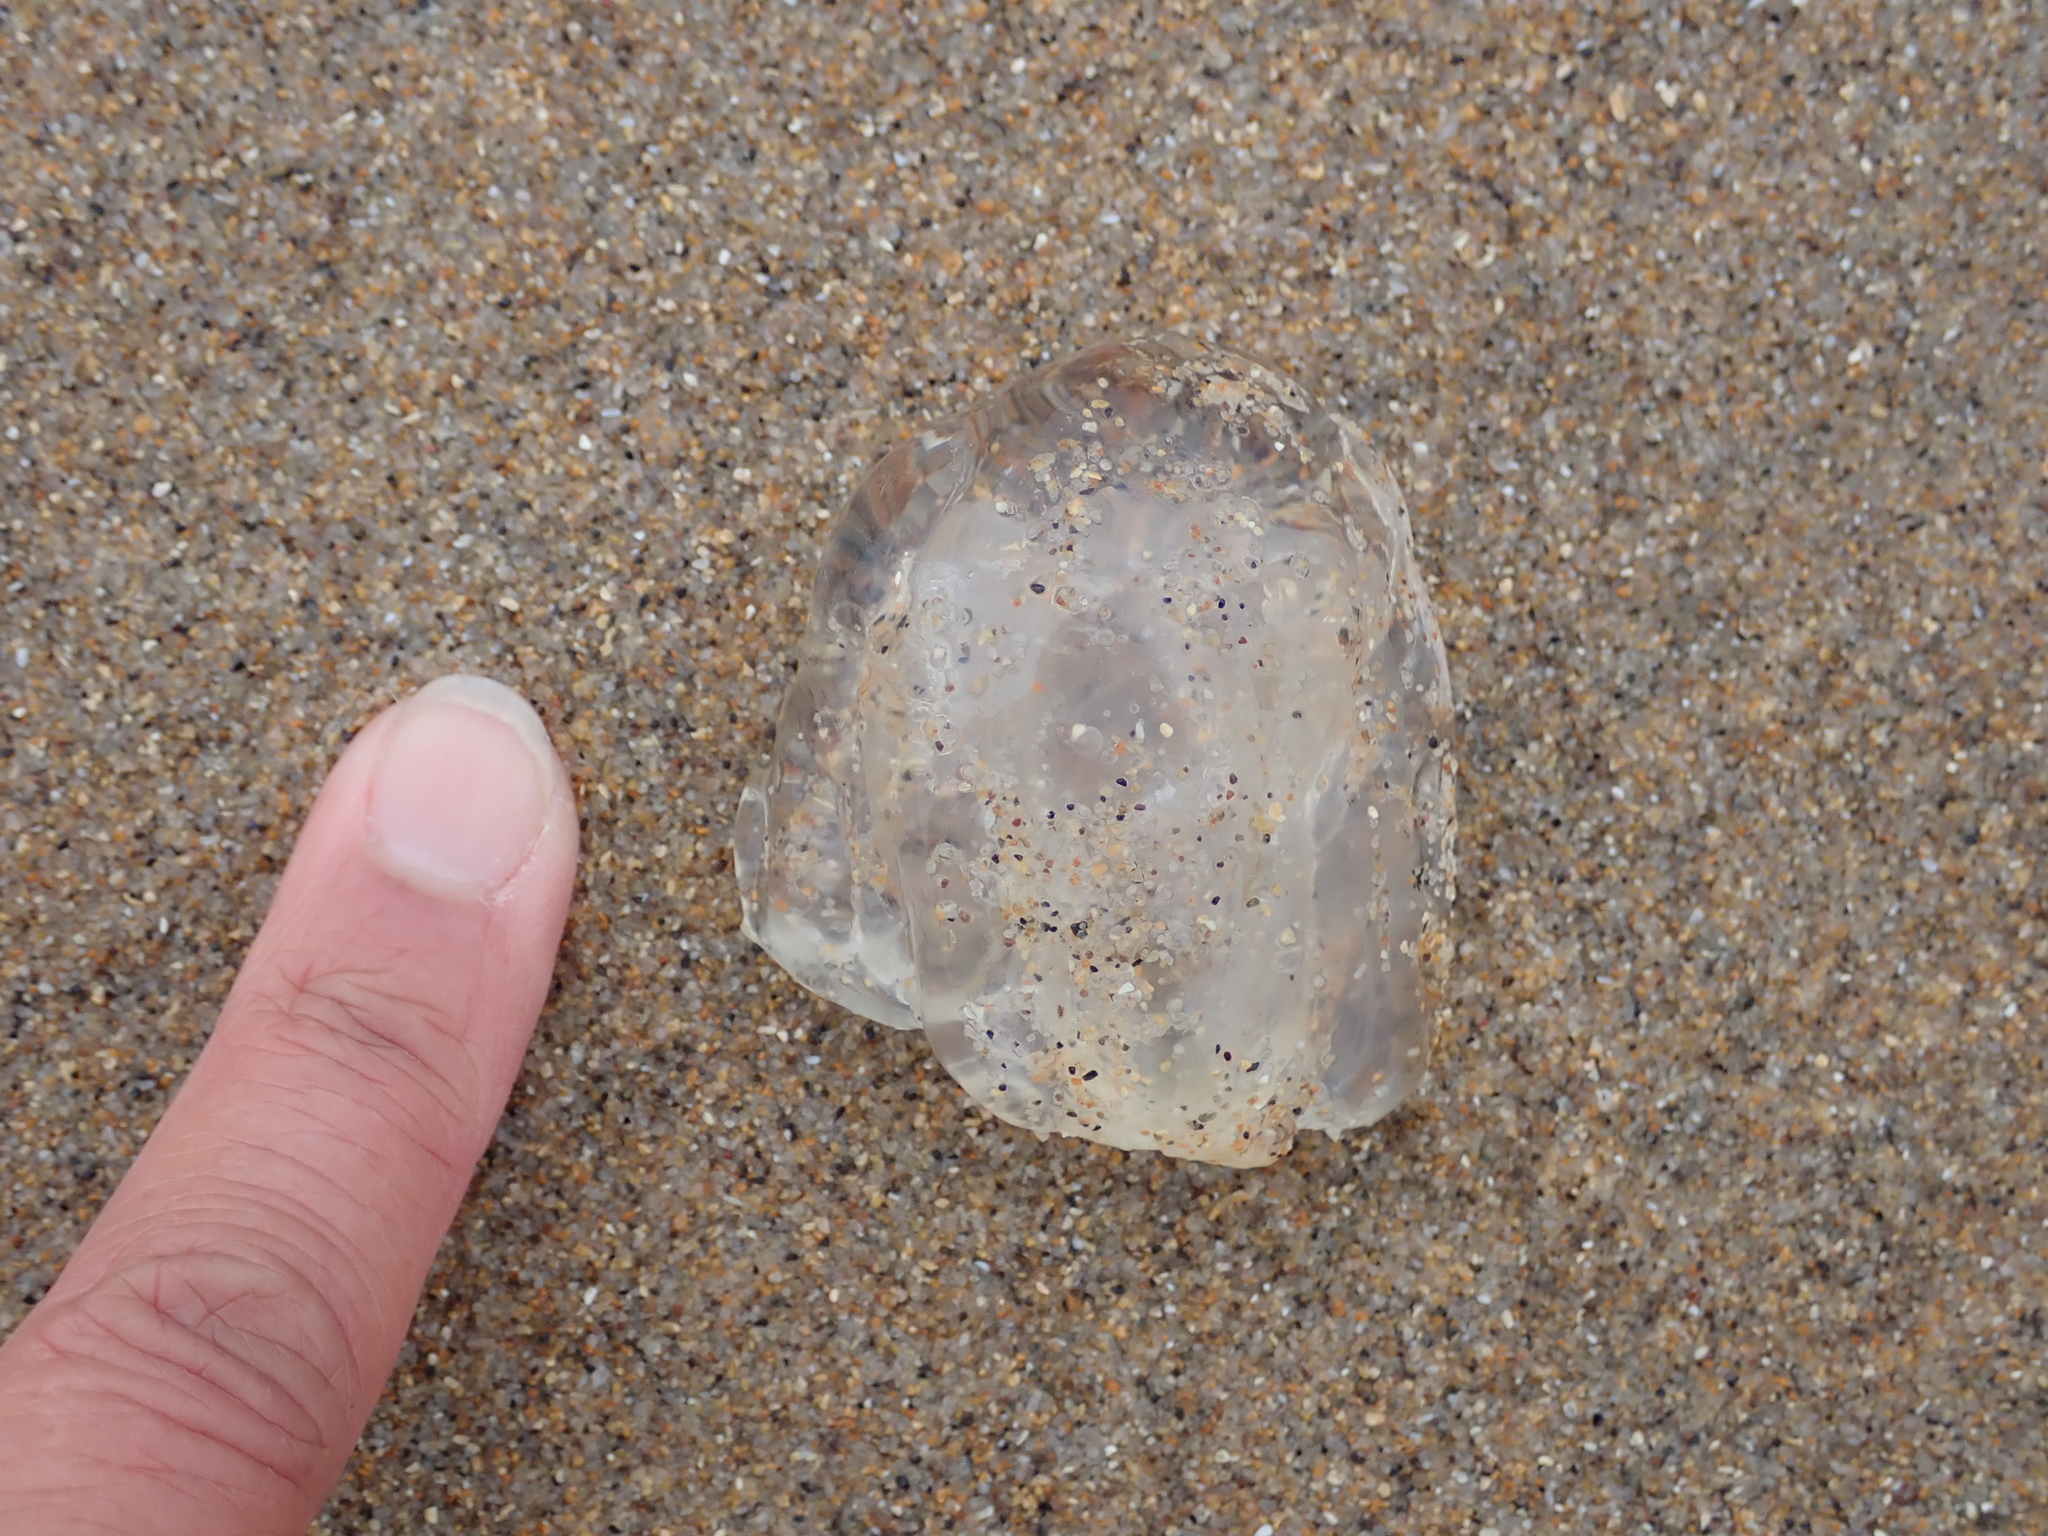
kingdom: Animalia
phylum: Cnidaria
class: Hydrozoa
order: Anthoathecata
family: Corynidae
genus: Scrippsia
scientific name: Scrippsia pacifica
